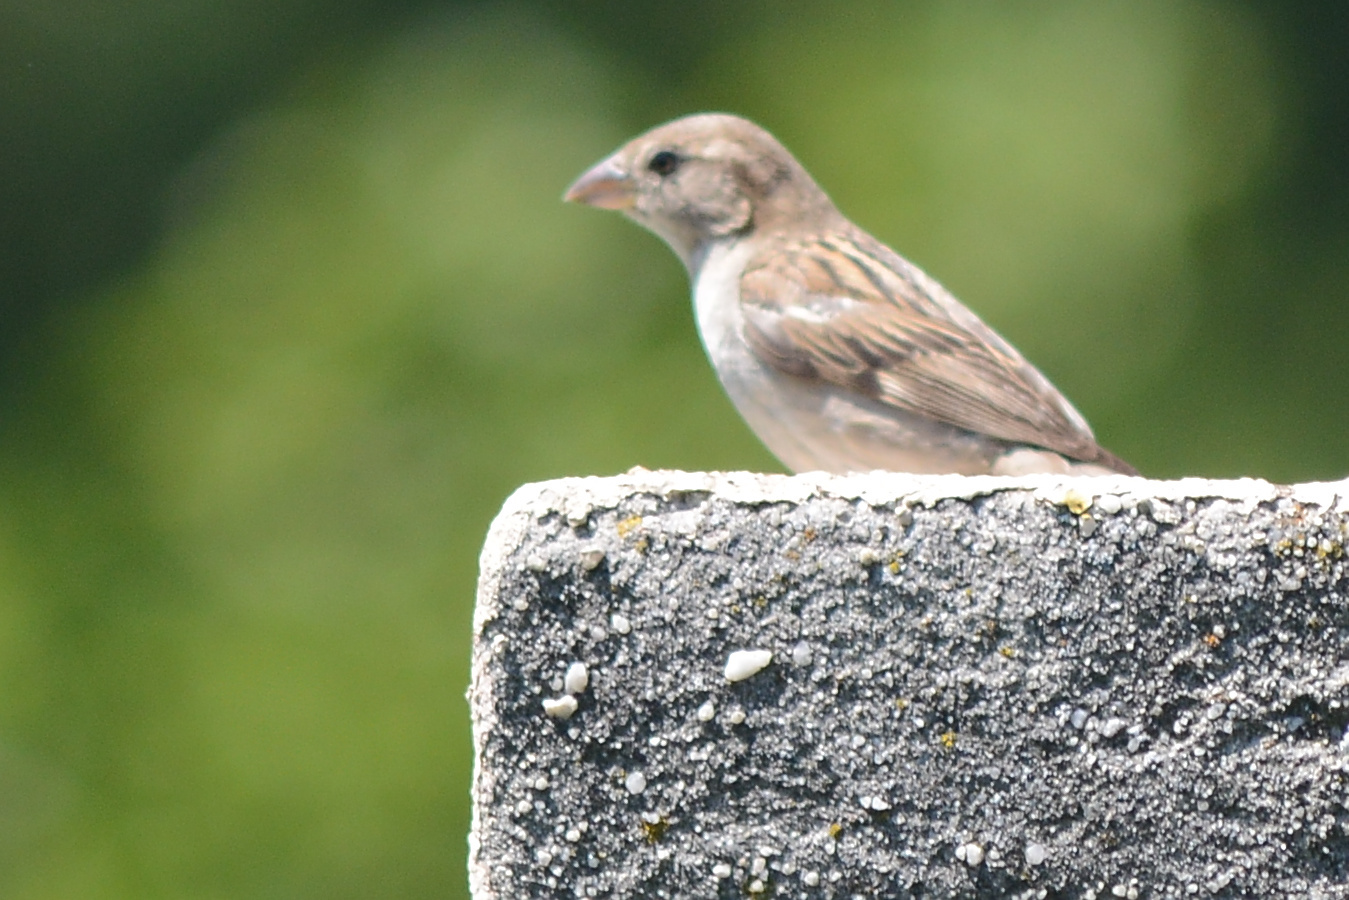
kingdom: Animalia
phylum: Chordata
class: Aves
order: Passeriformes
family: Passeridae
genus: Passer
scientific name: Passer domesticus
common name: House sparrow
